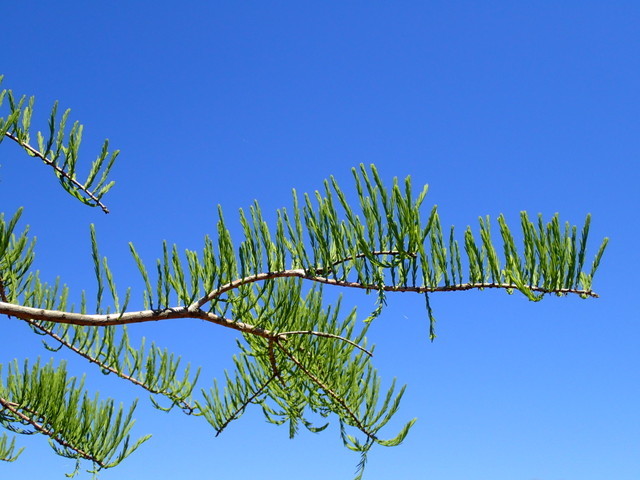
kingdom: Plantae
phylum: Tracheophyta
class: Pinopsida
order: Pinales
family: Cupressaceae
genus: Taxodium
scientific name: Taxodium distichum
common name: Bald cypress
